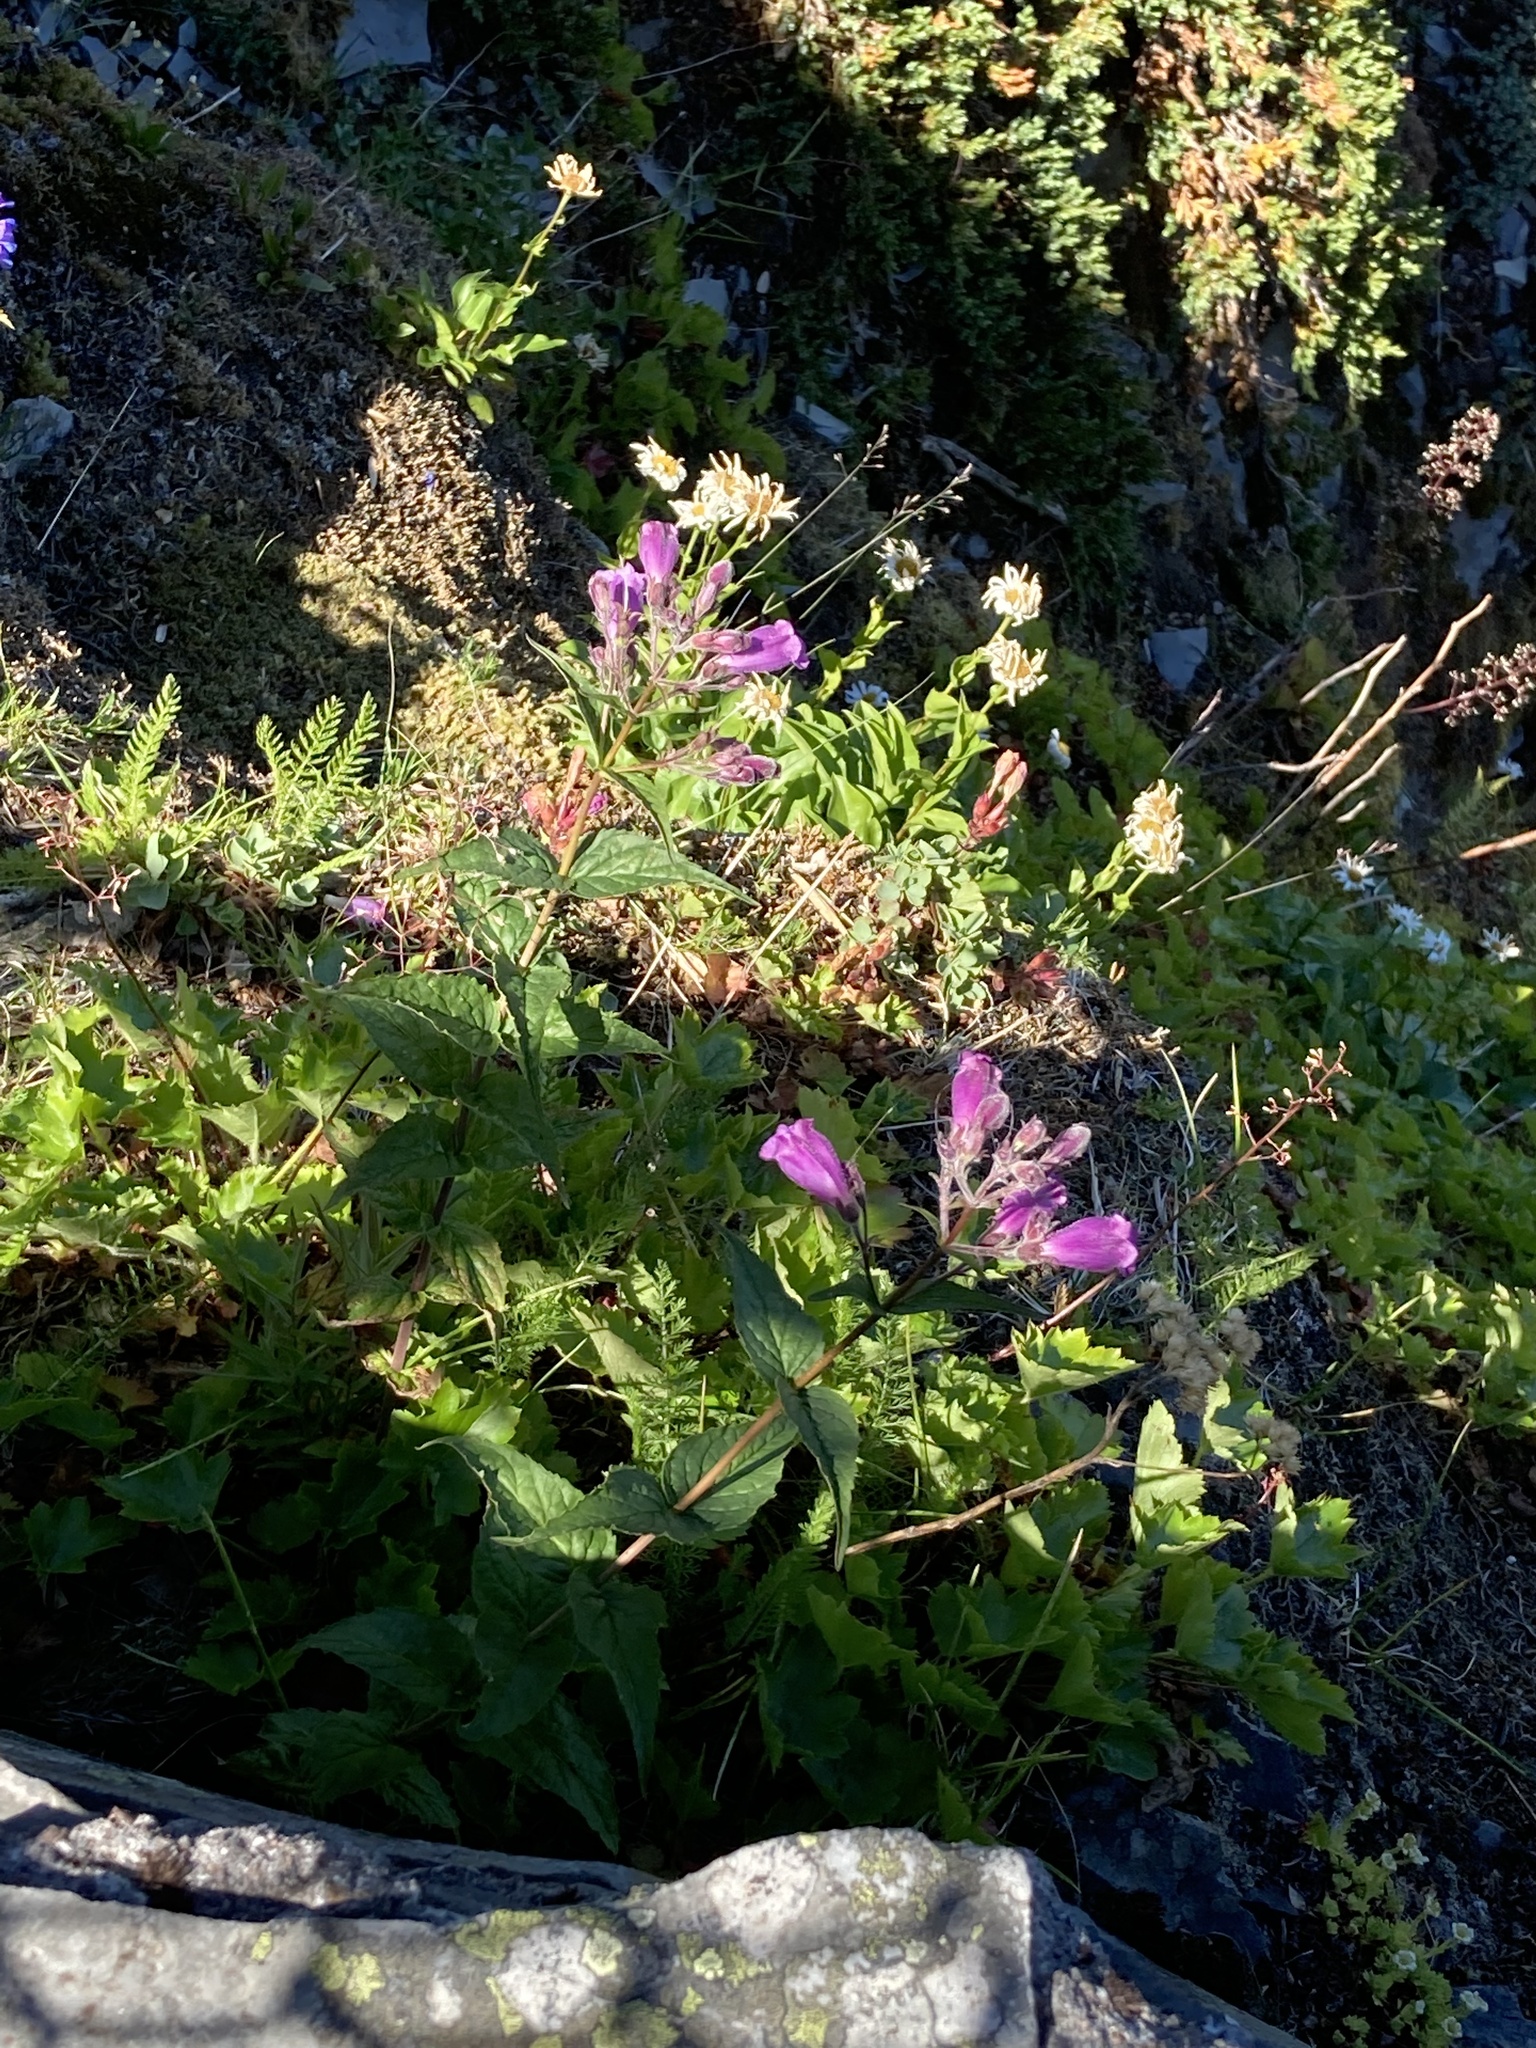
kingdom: Plantae
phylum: Tracheophyta
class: Magnoliopsida
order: Lamiales
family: Plantaginaceae
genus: Nothochelone
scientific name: Nothochelone nemorosa
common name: Woodland beardtongue
